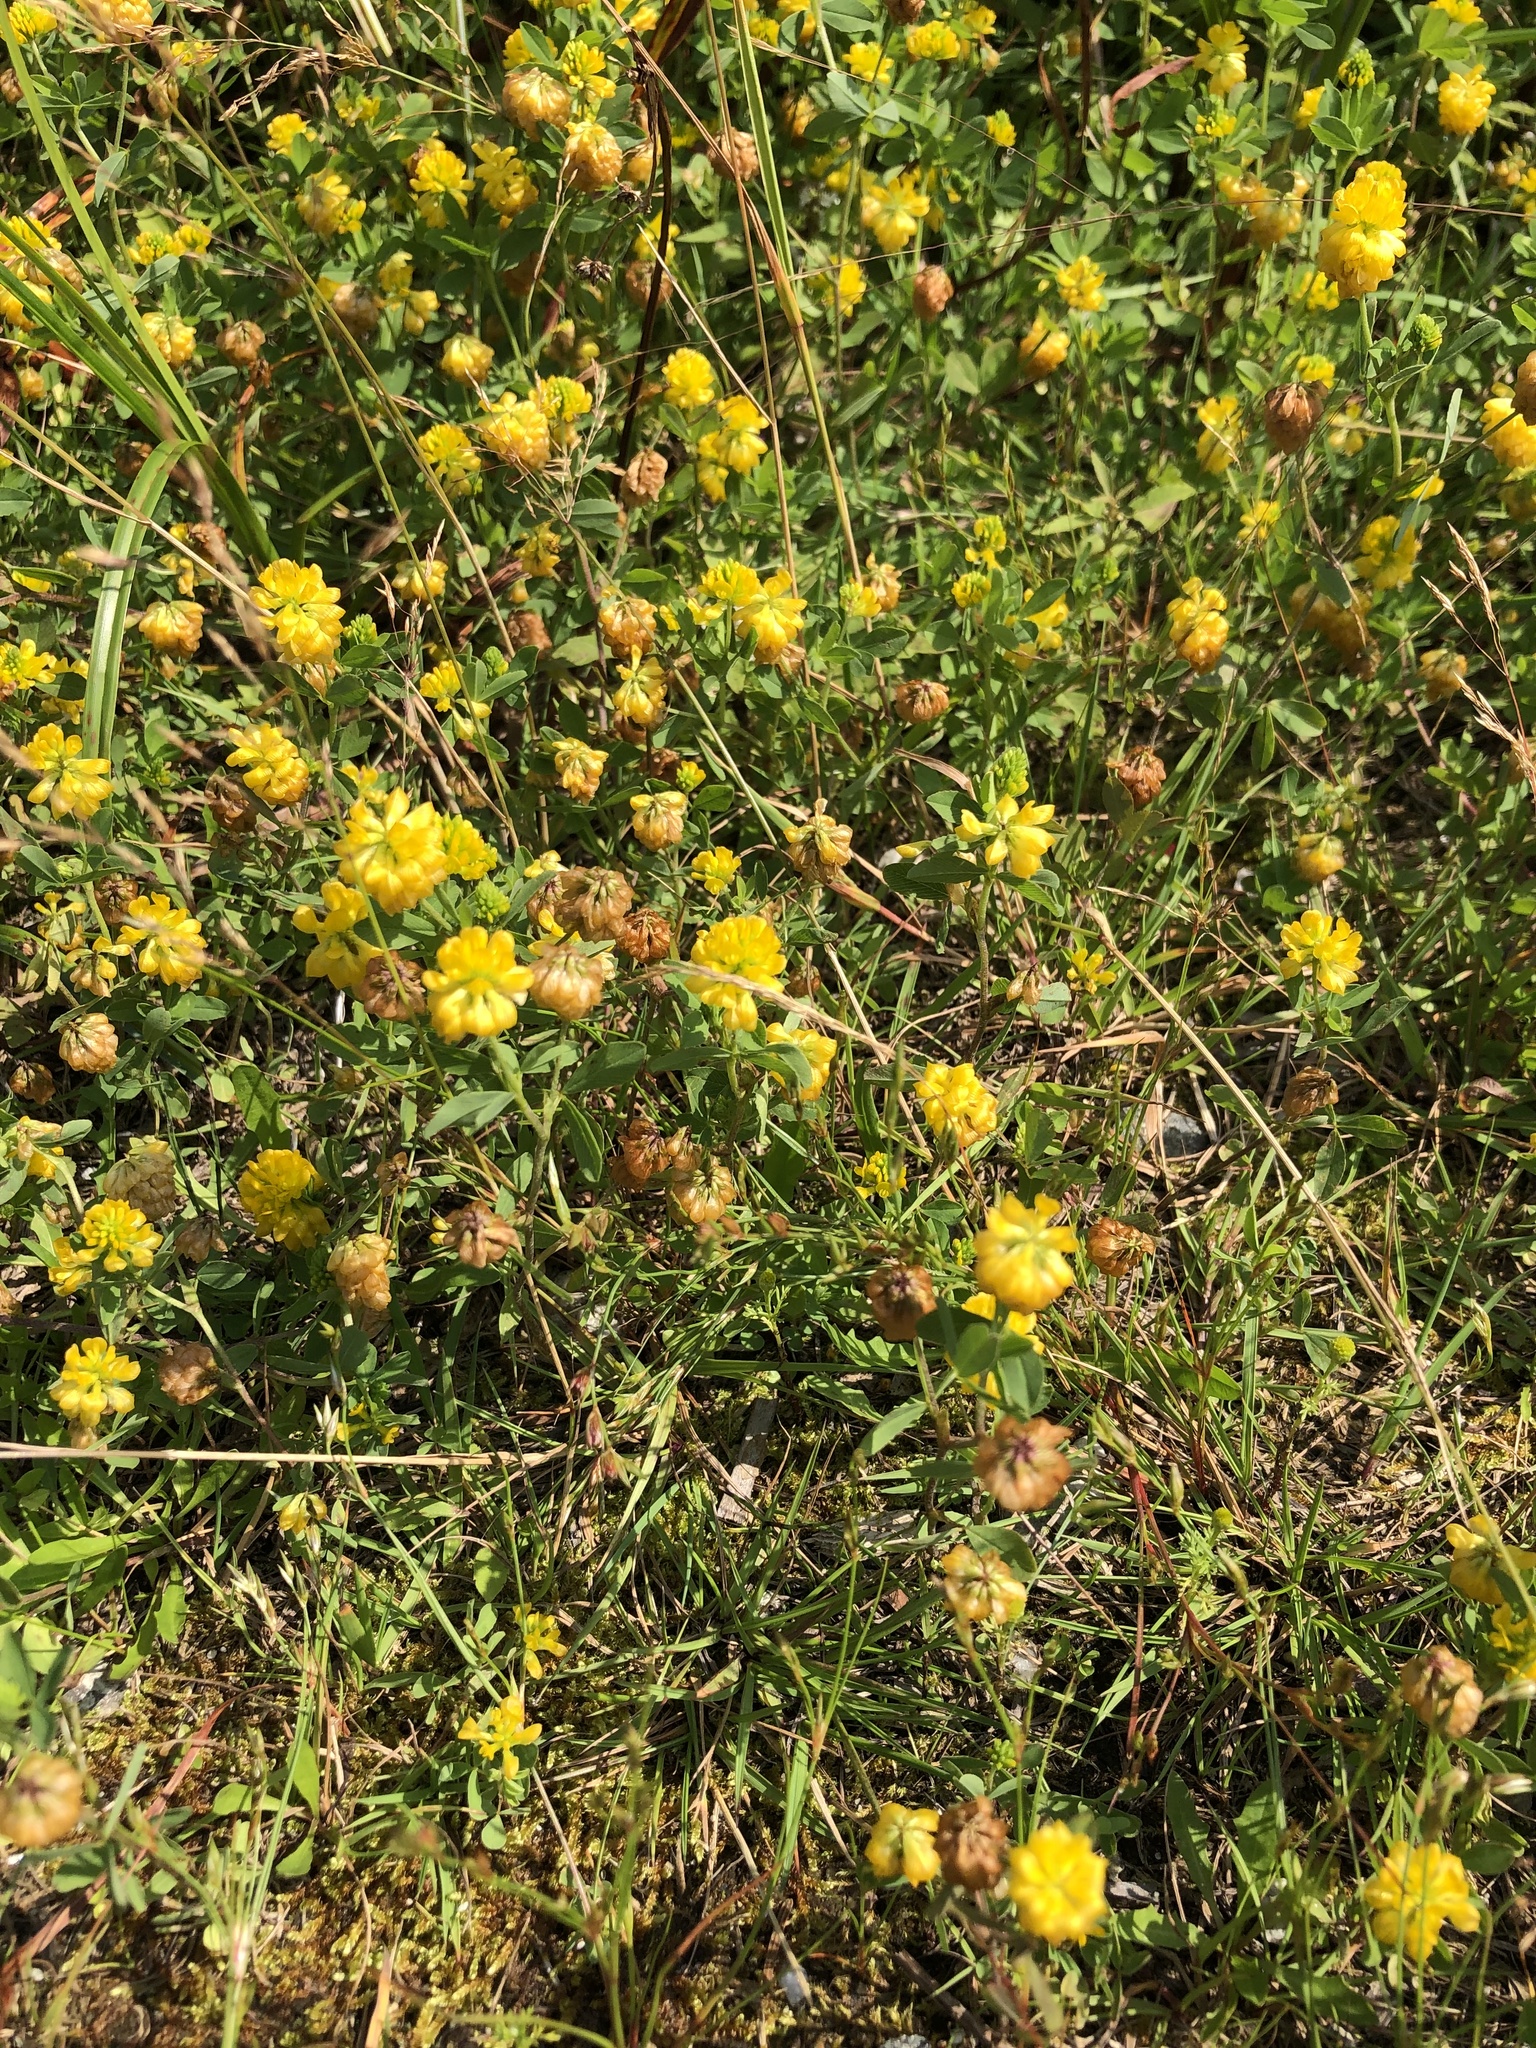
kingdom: Plantae
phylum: Tracheophyta
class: Magnoliopsida
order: Fabales
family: Fabaceae
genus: Trifolium
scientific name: Trifolium aureum
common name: Golden clover
